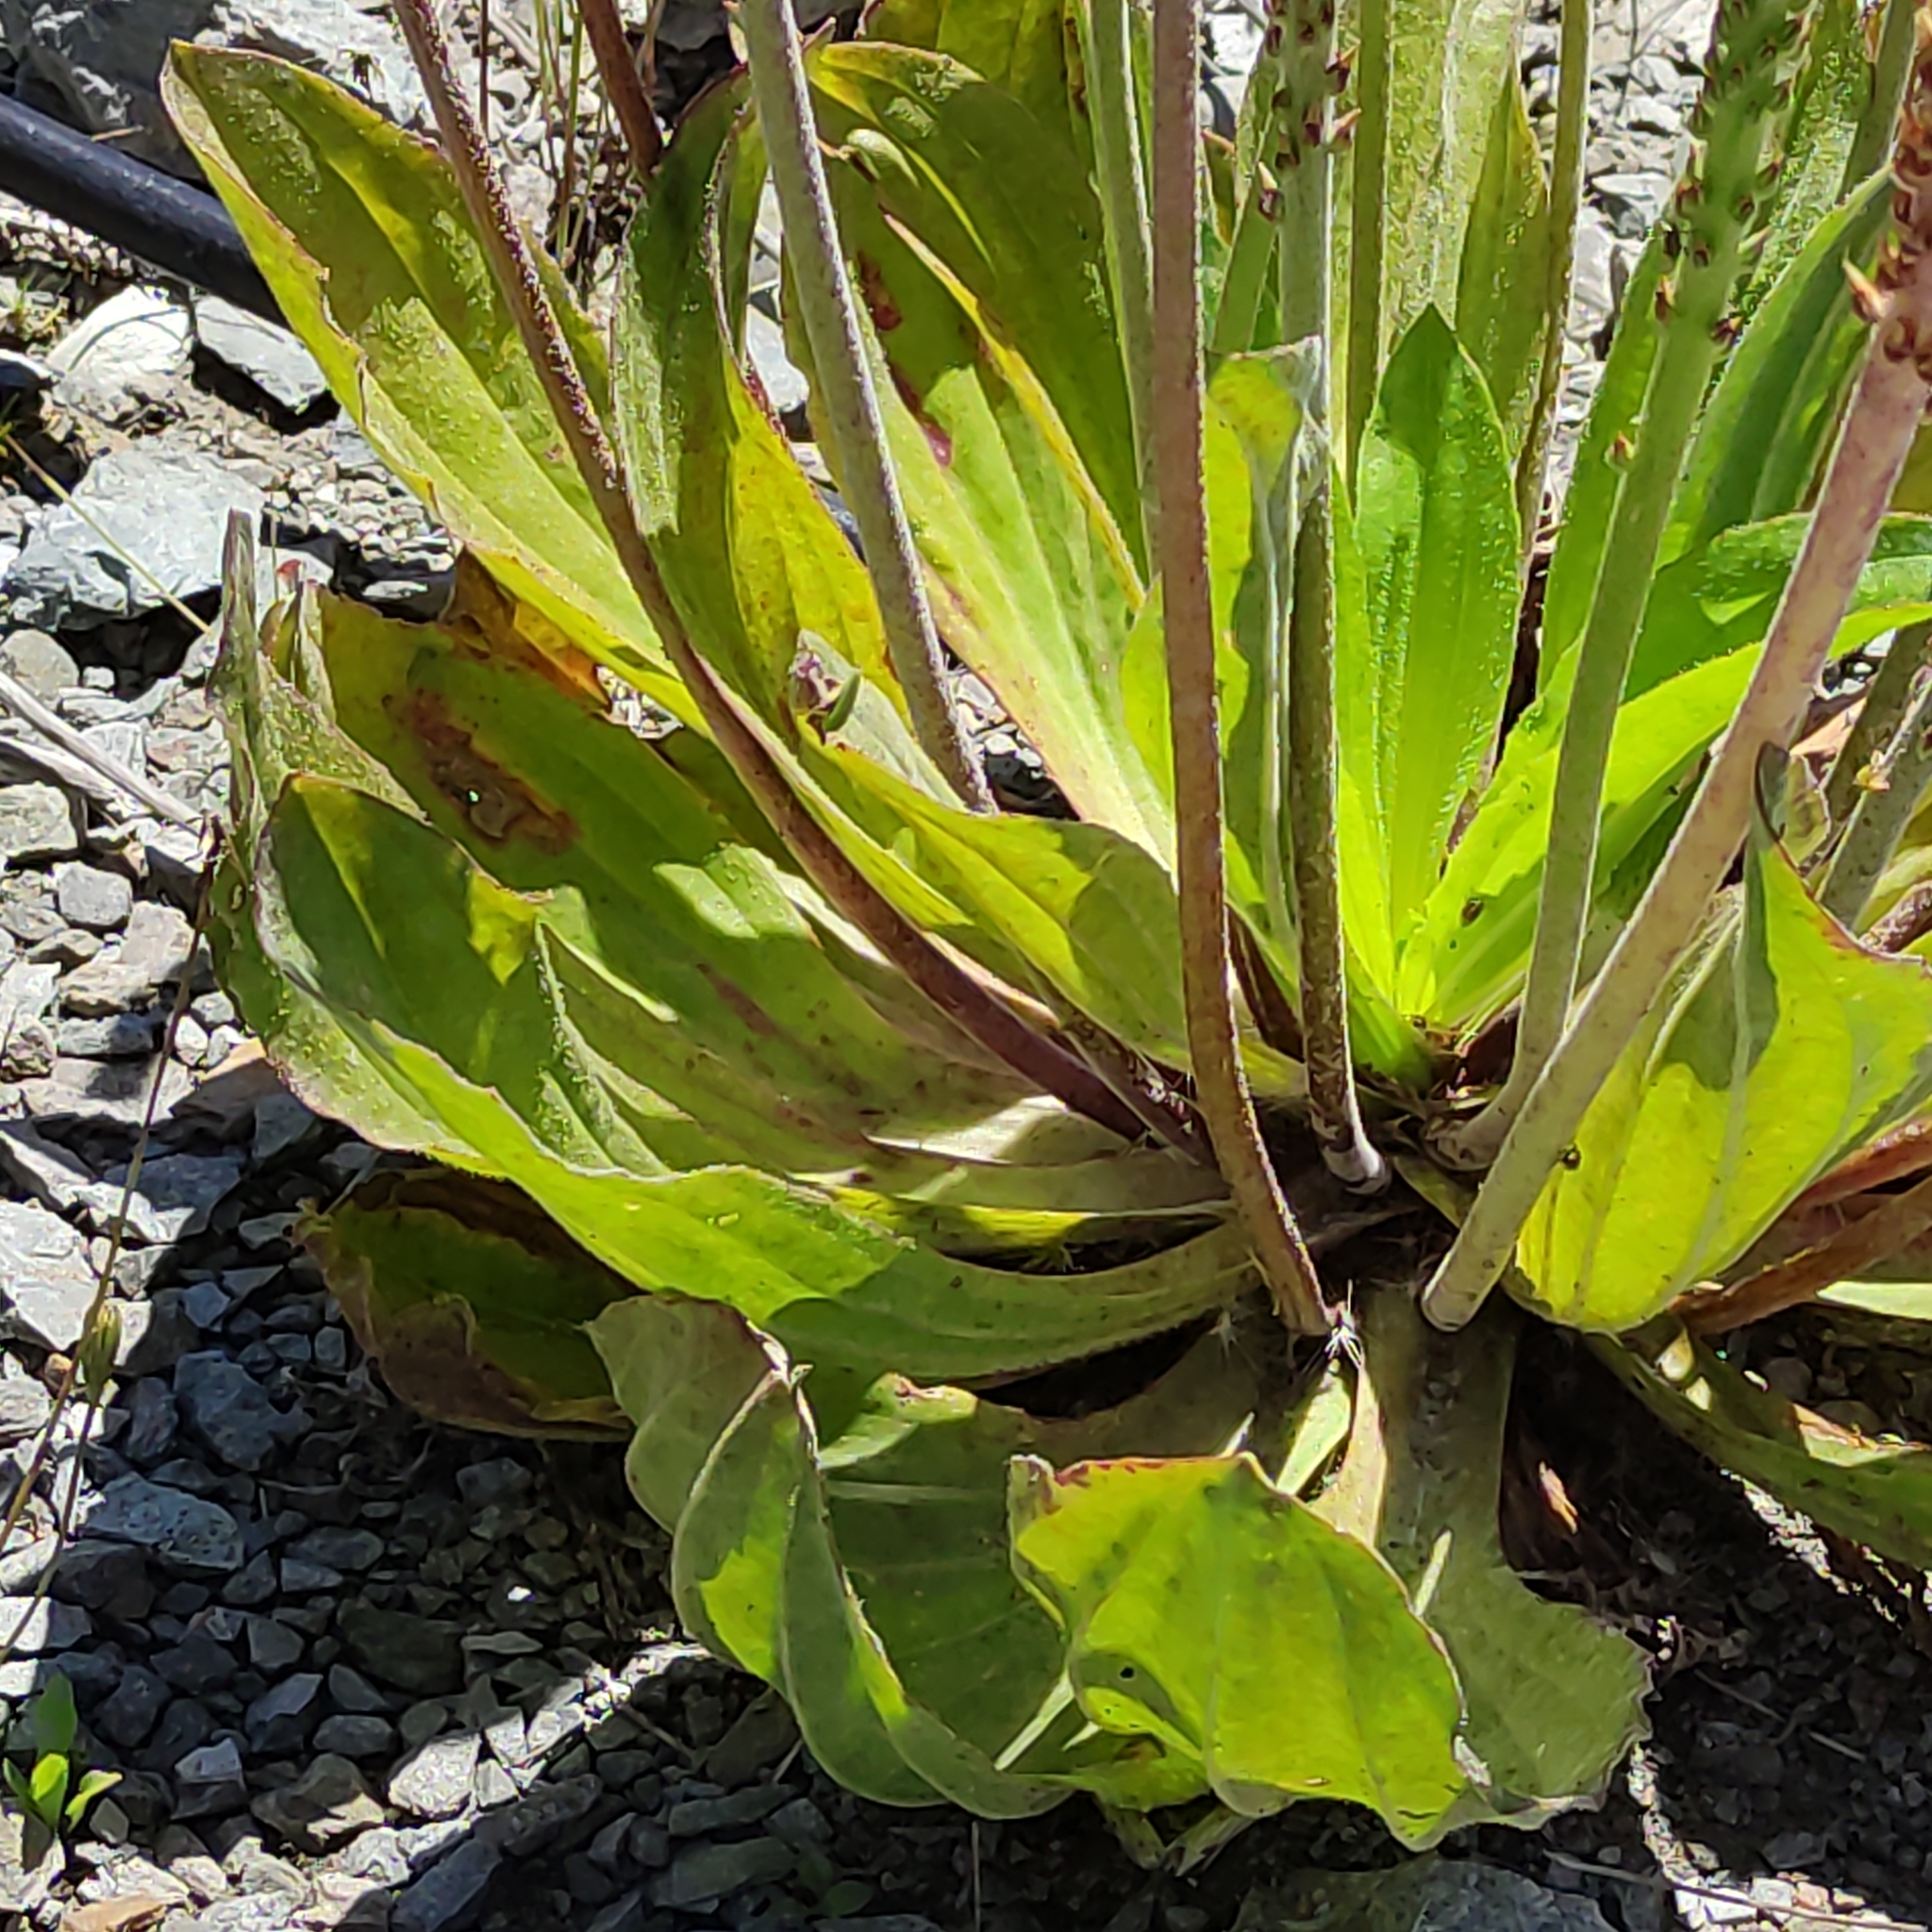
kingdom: Plantae
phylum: Tracheophyta
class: Magnoliopsida
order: Lamiales
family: Plantaginaceae
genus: Plantago
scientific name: Plantago australis
